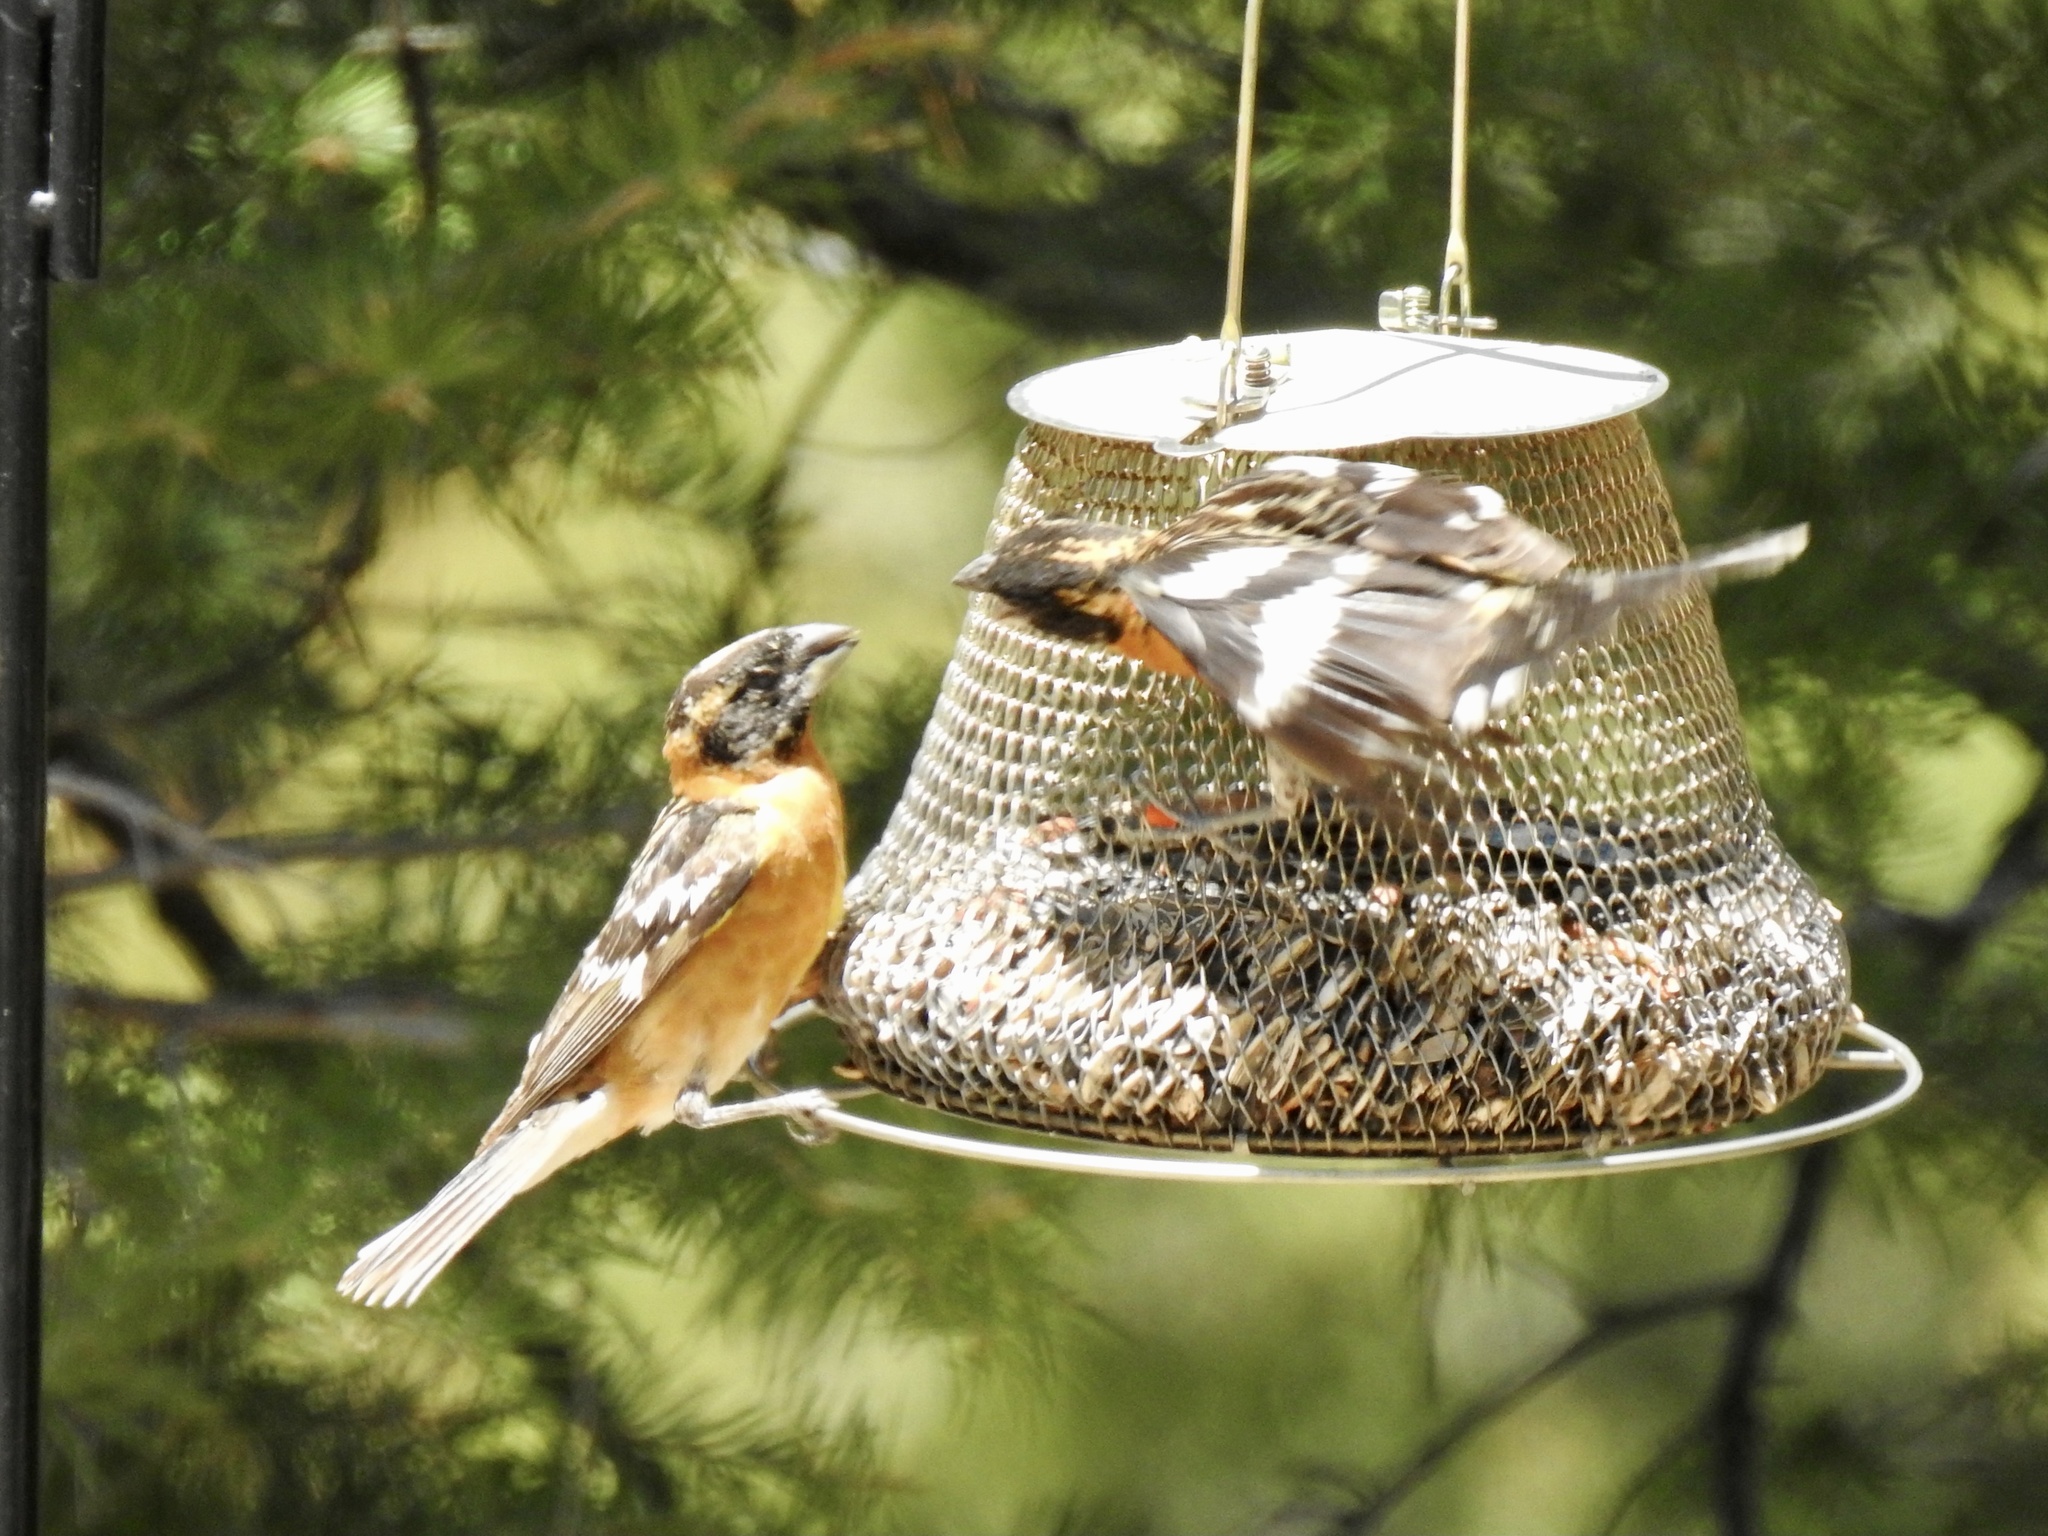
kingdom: Animalia
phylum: Chordata
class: Aves
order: Passeriformes
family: Cardinalidae
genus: Pheucticus
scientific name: Pheucticus melanocephalus
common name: Black-headed grosbeak
